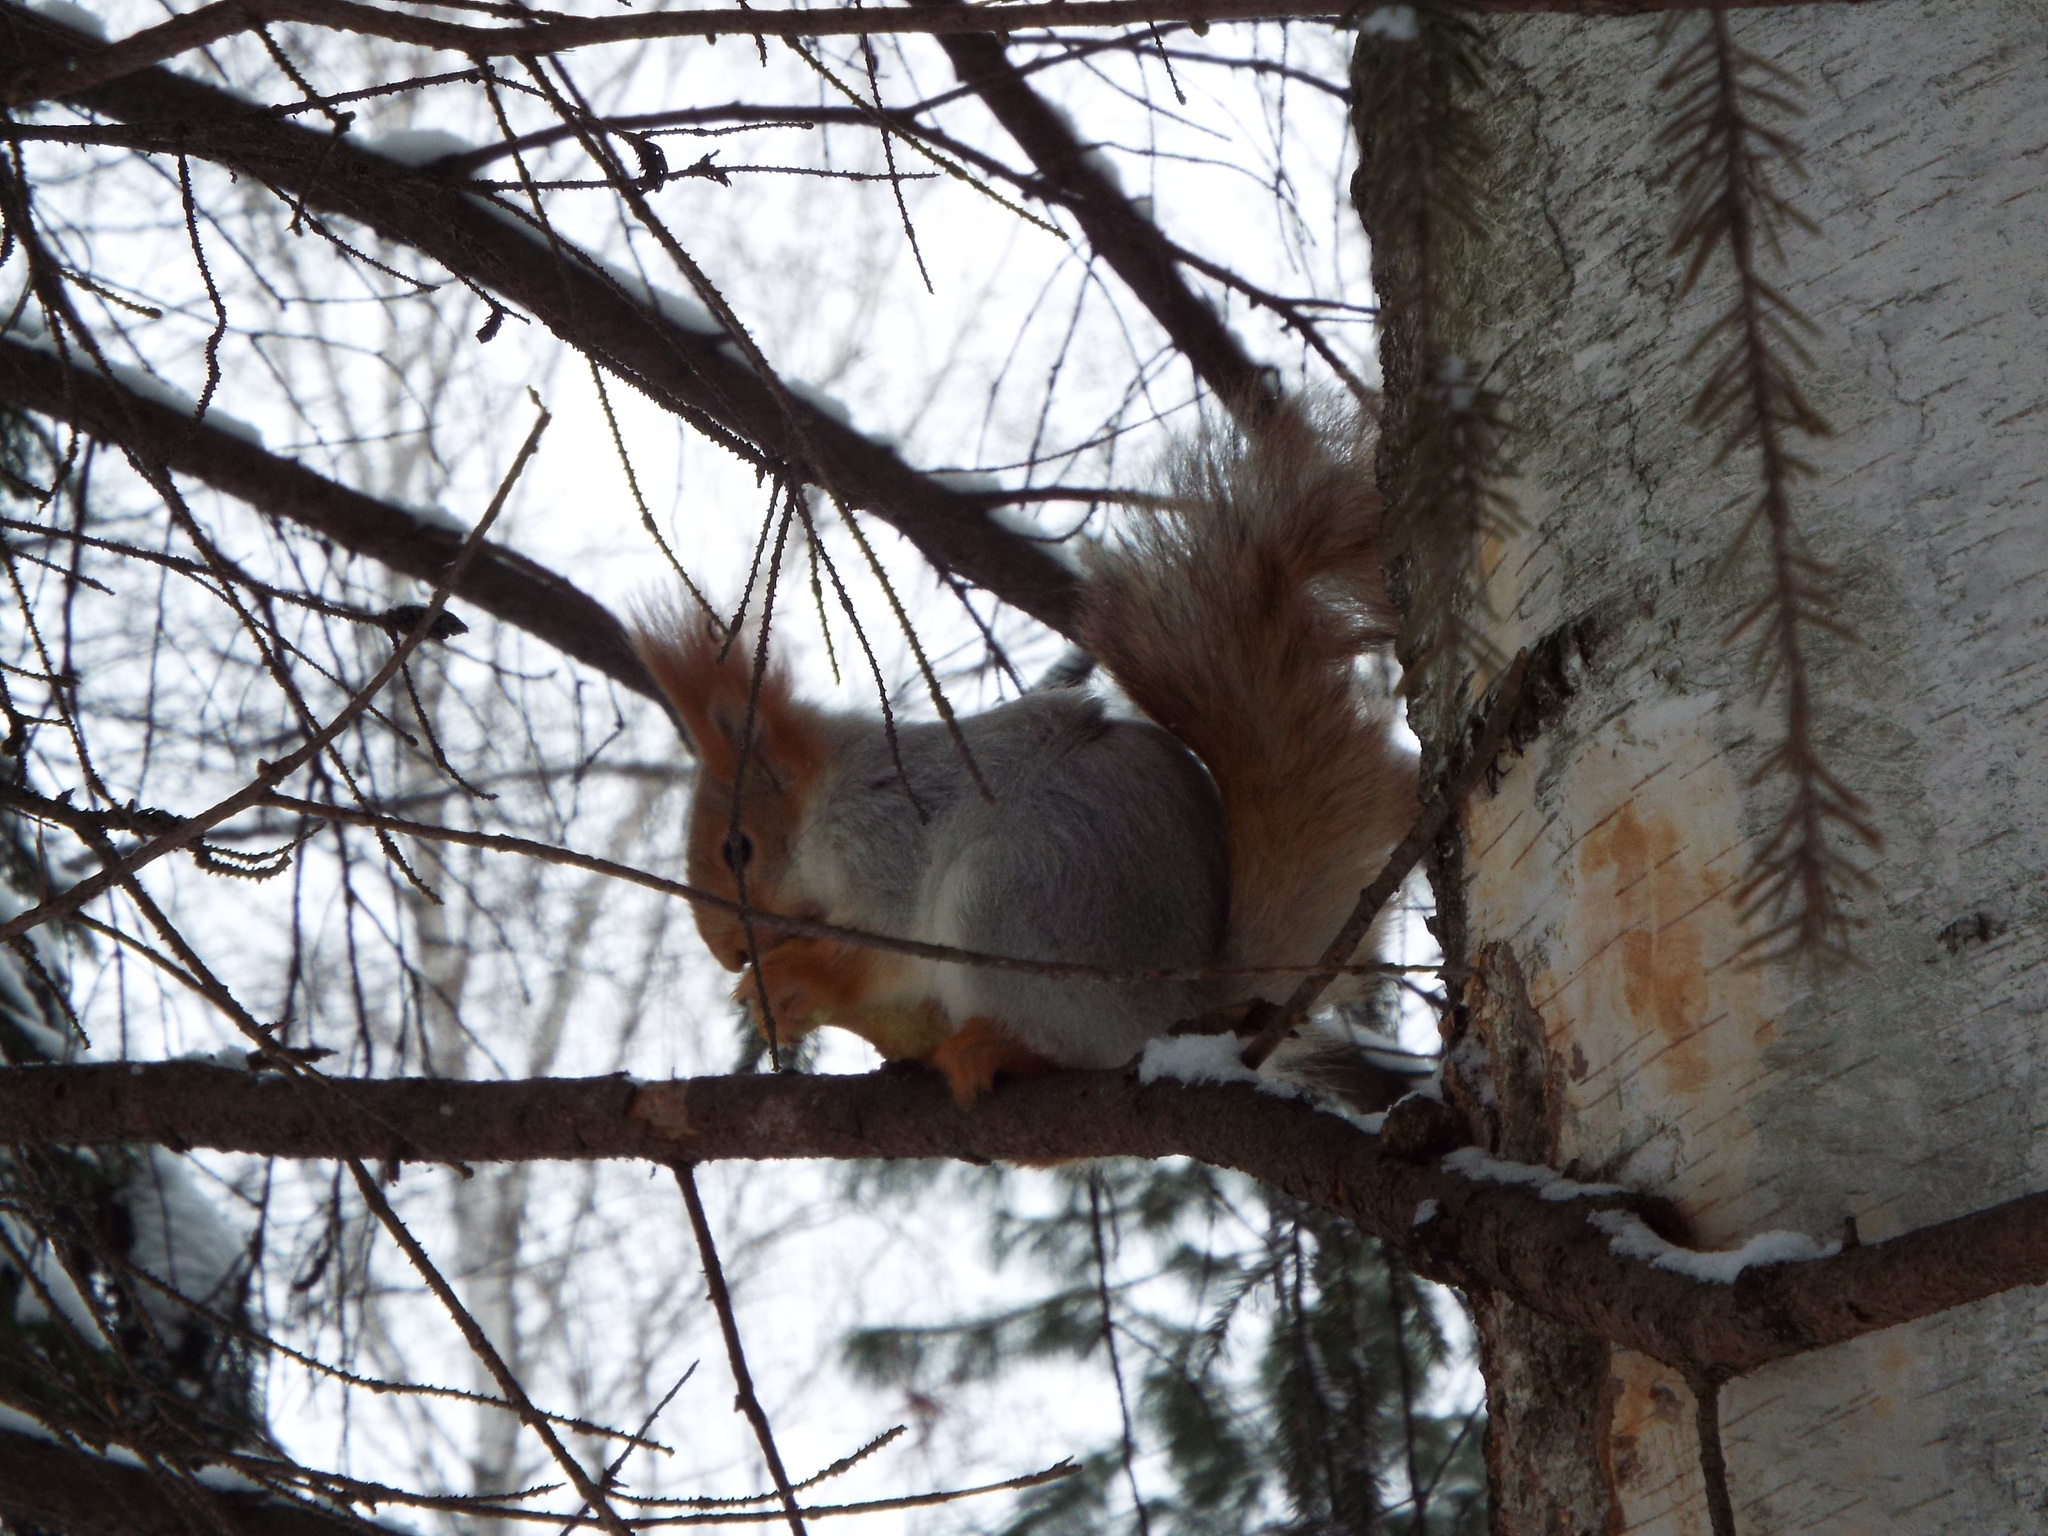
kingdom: Animalia
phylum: Chordata
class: Mammalia
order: Rodentia
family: Sciuridae
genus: Sciurus
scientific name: Sciurus vulgaris
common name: Eurasian red squirrel
